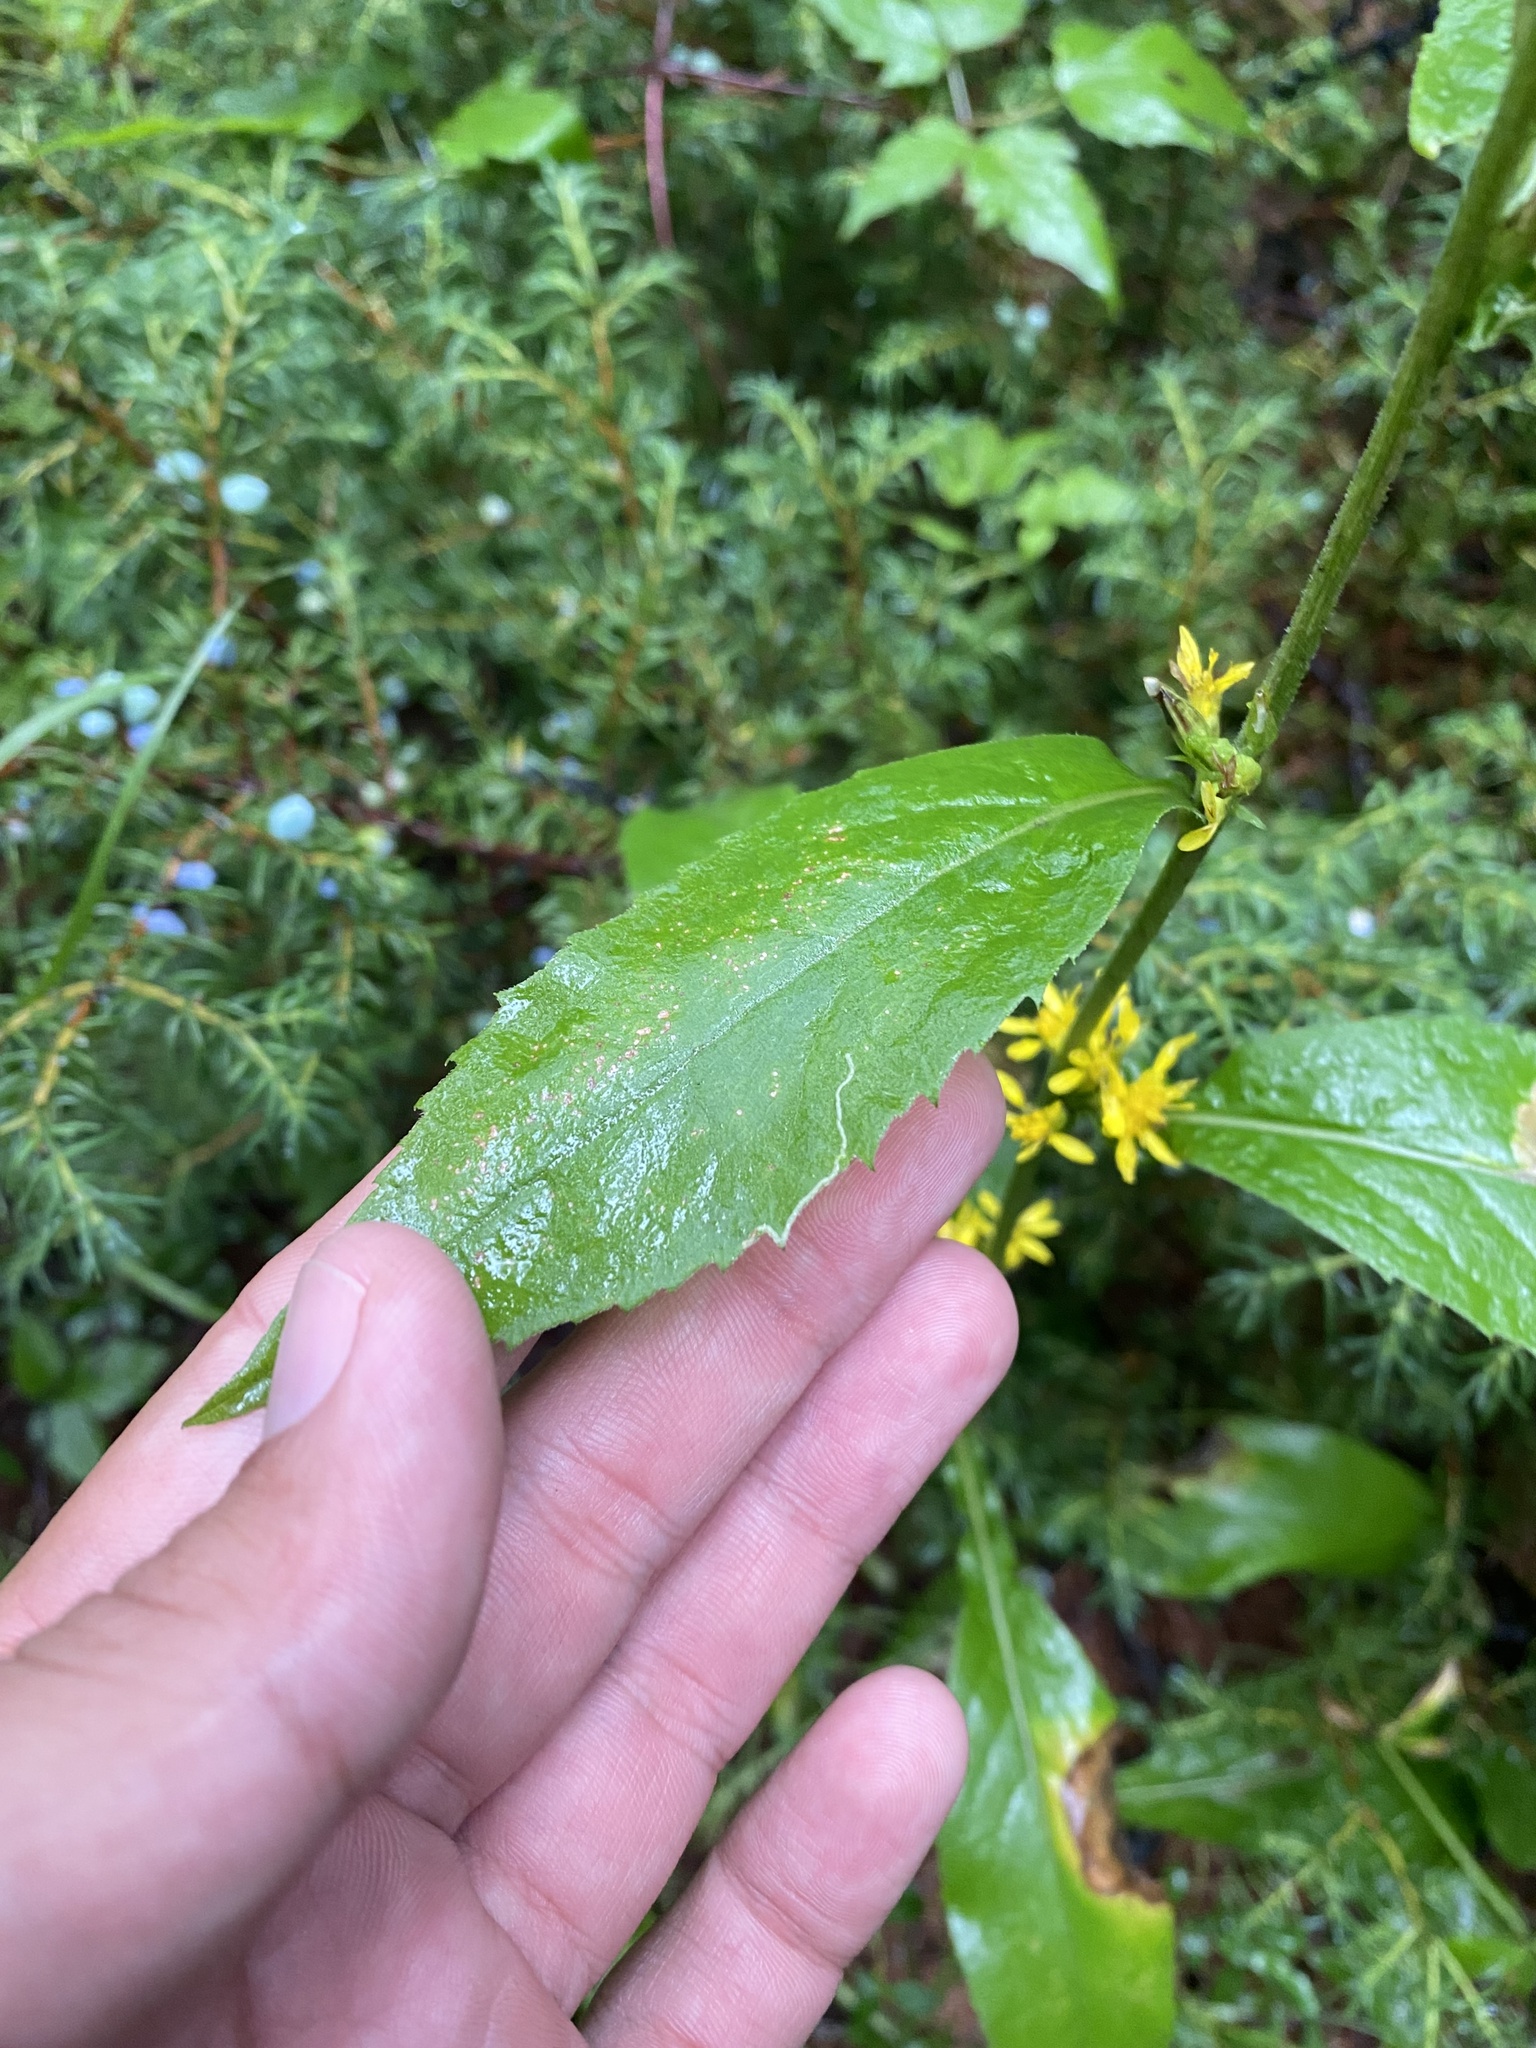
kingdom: Plantae
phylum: Tracheophyta
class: Magnoliopsida
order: Asterales
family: Asteraceae
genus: Solidago
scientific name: Solidago cuprea
